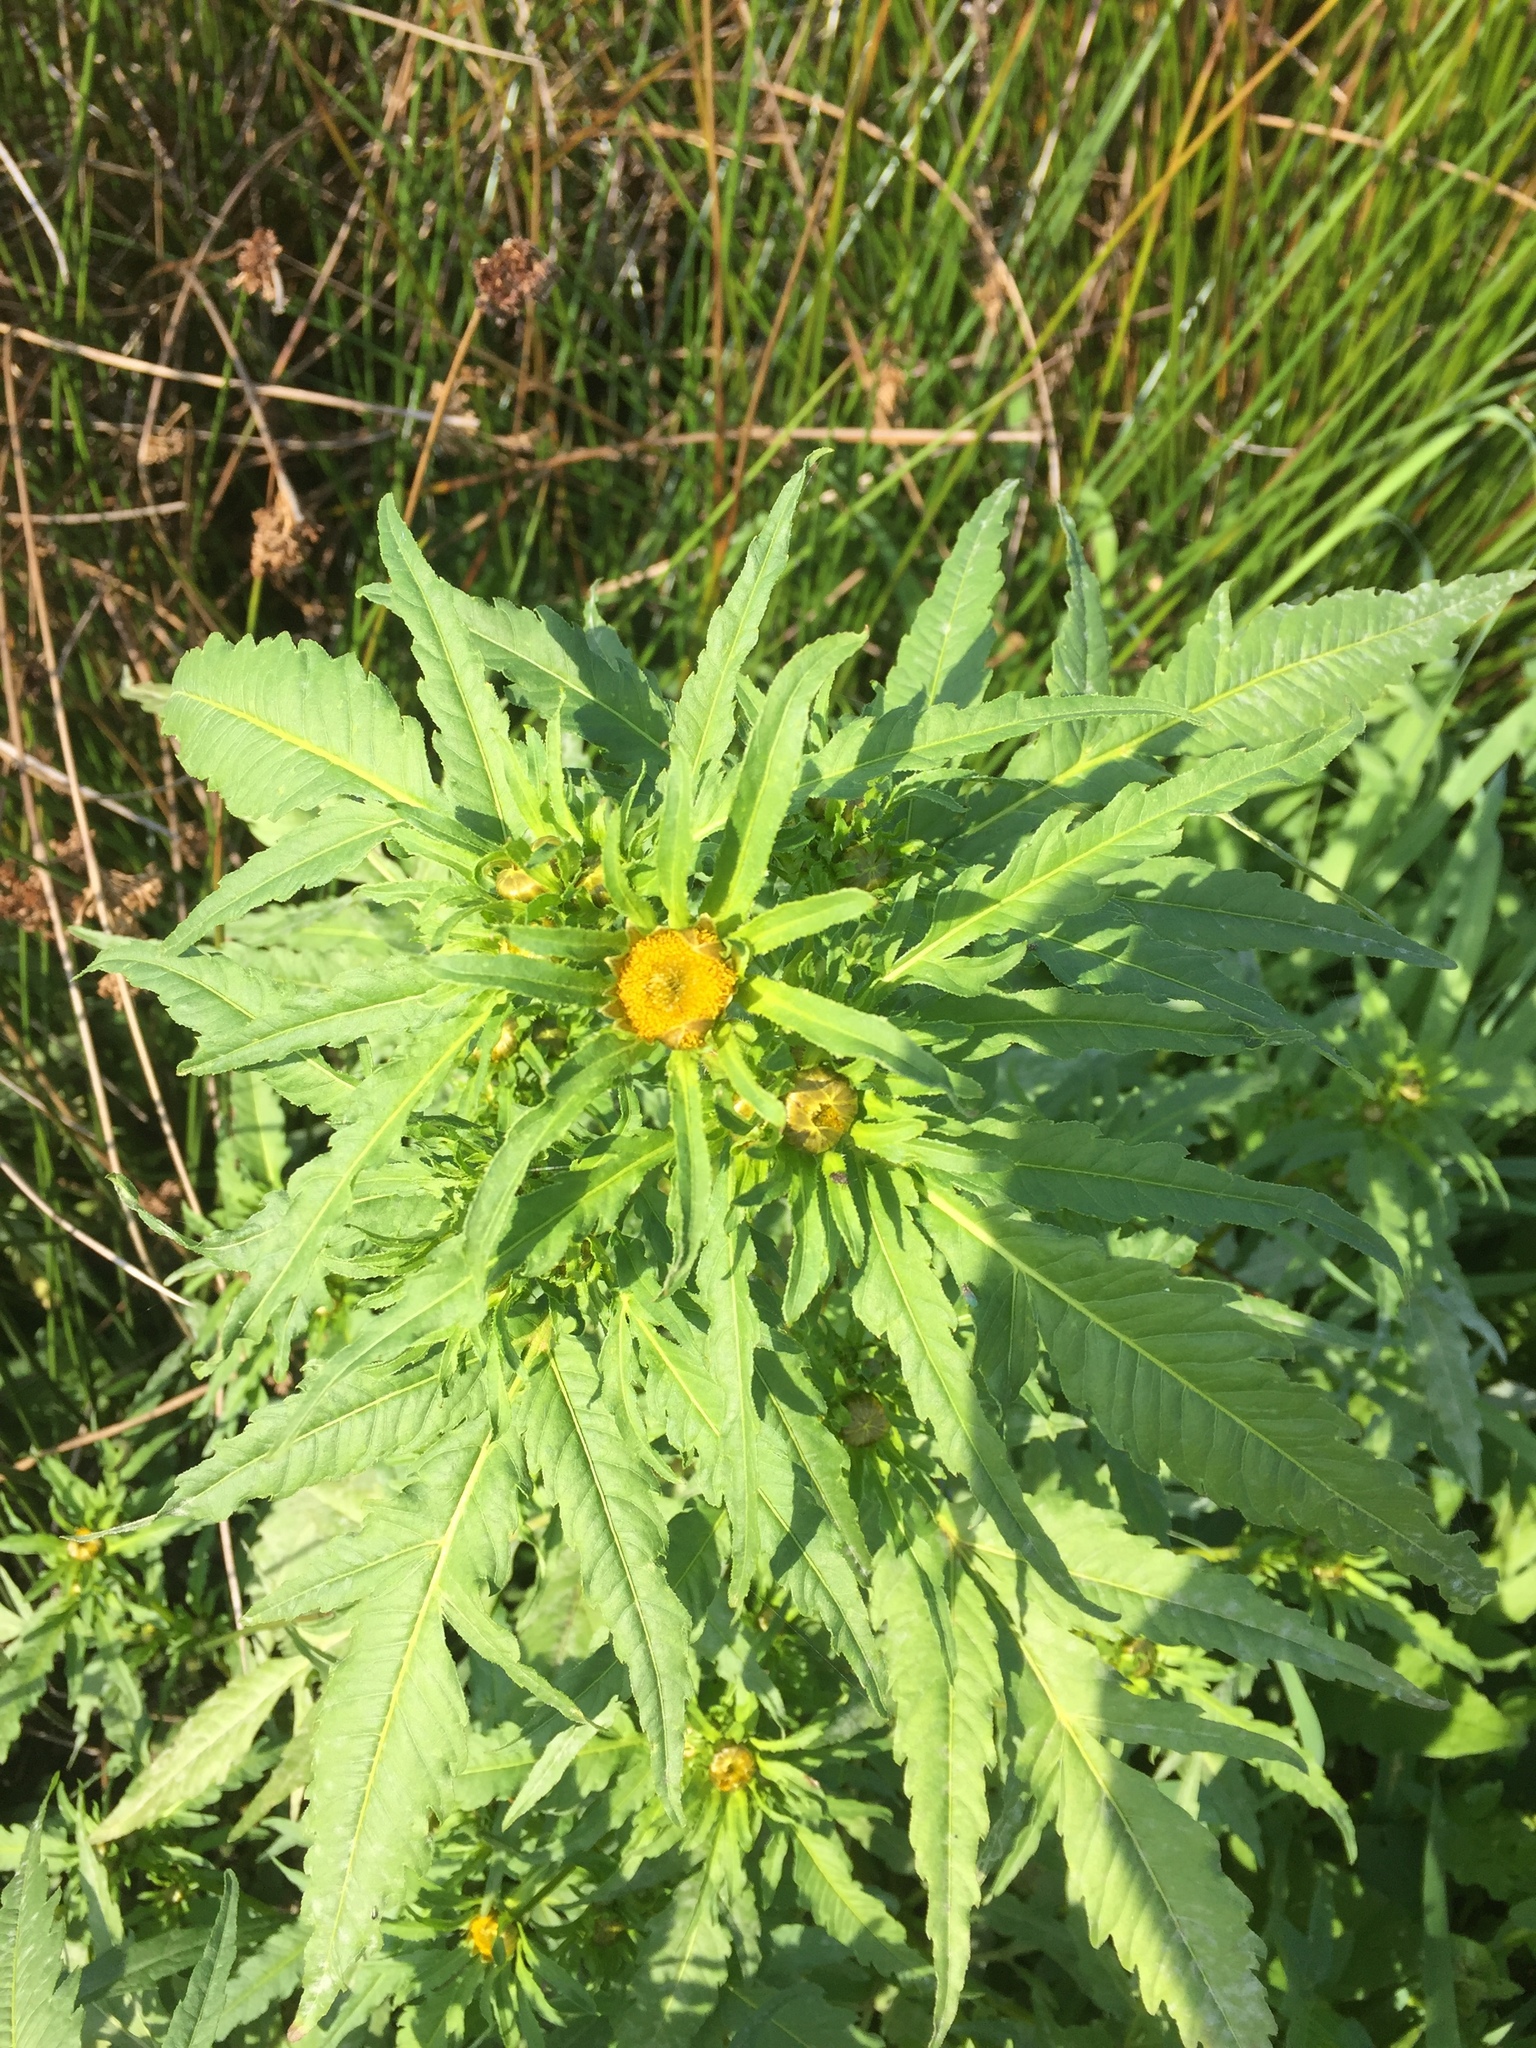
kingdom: Plantae
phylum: Tracheophyta
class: Magnoliopsida
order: Asterales
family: Asteraceae
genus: Bidens
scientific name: Bidens radiata
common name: Radiating bur-marigold
